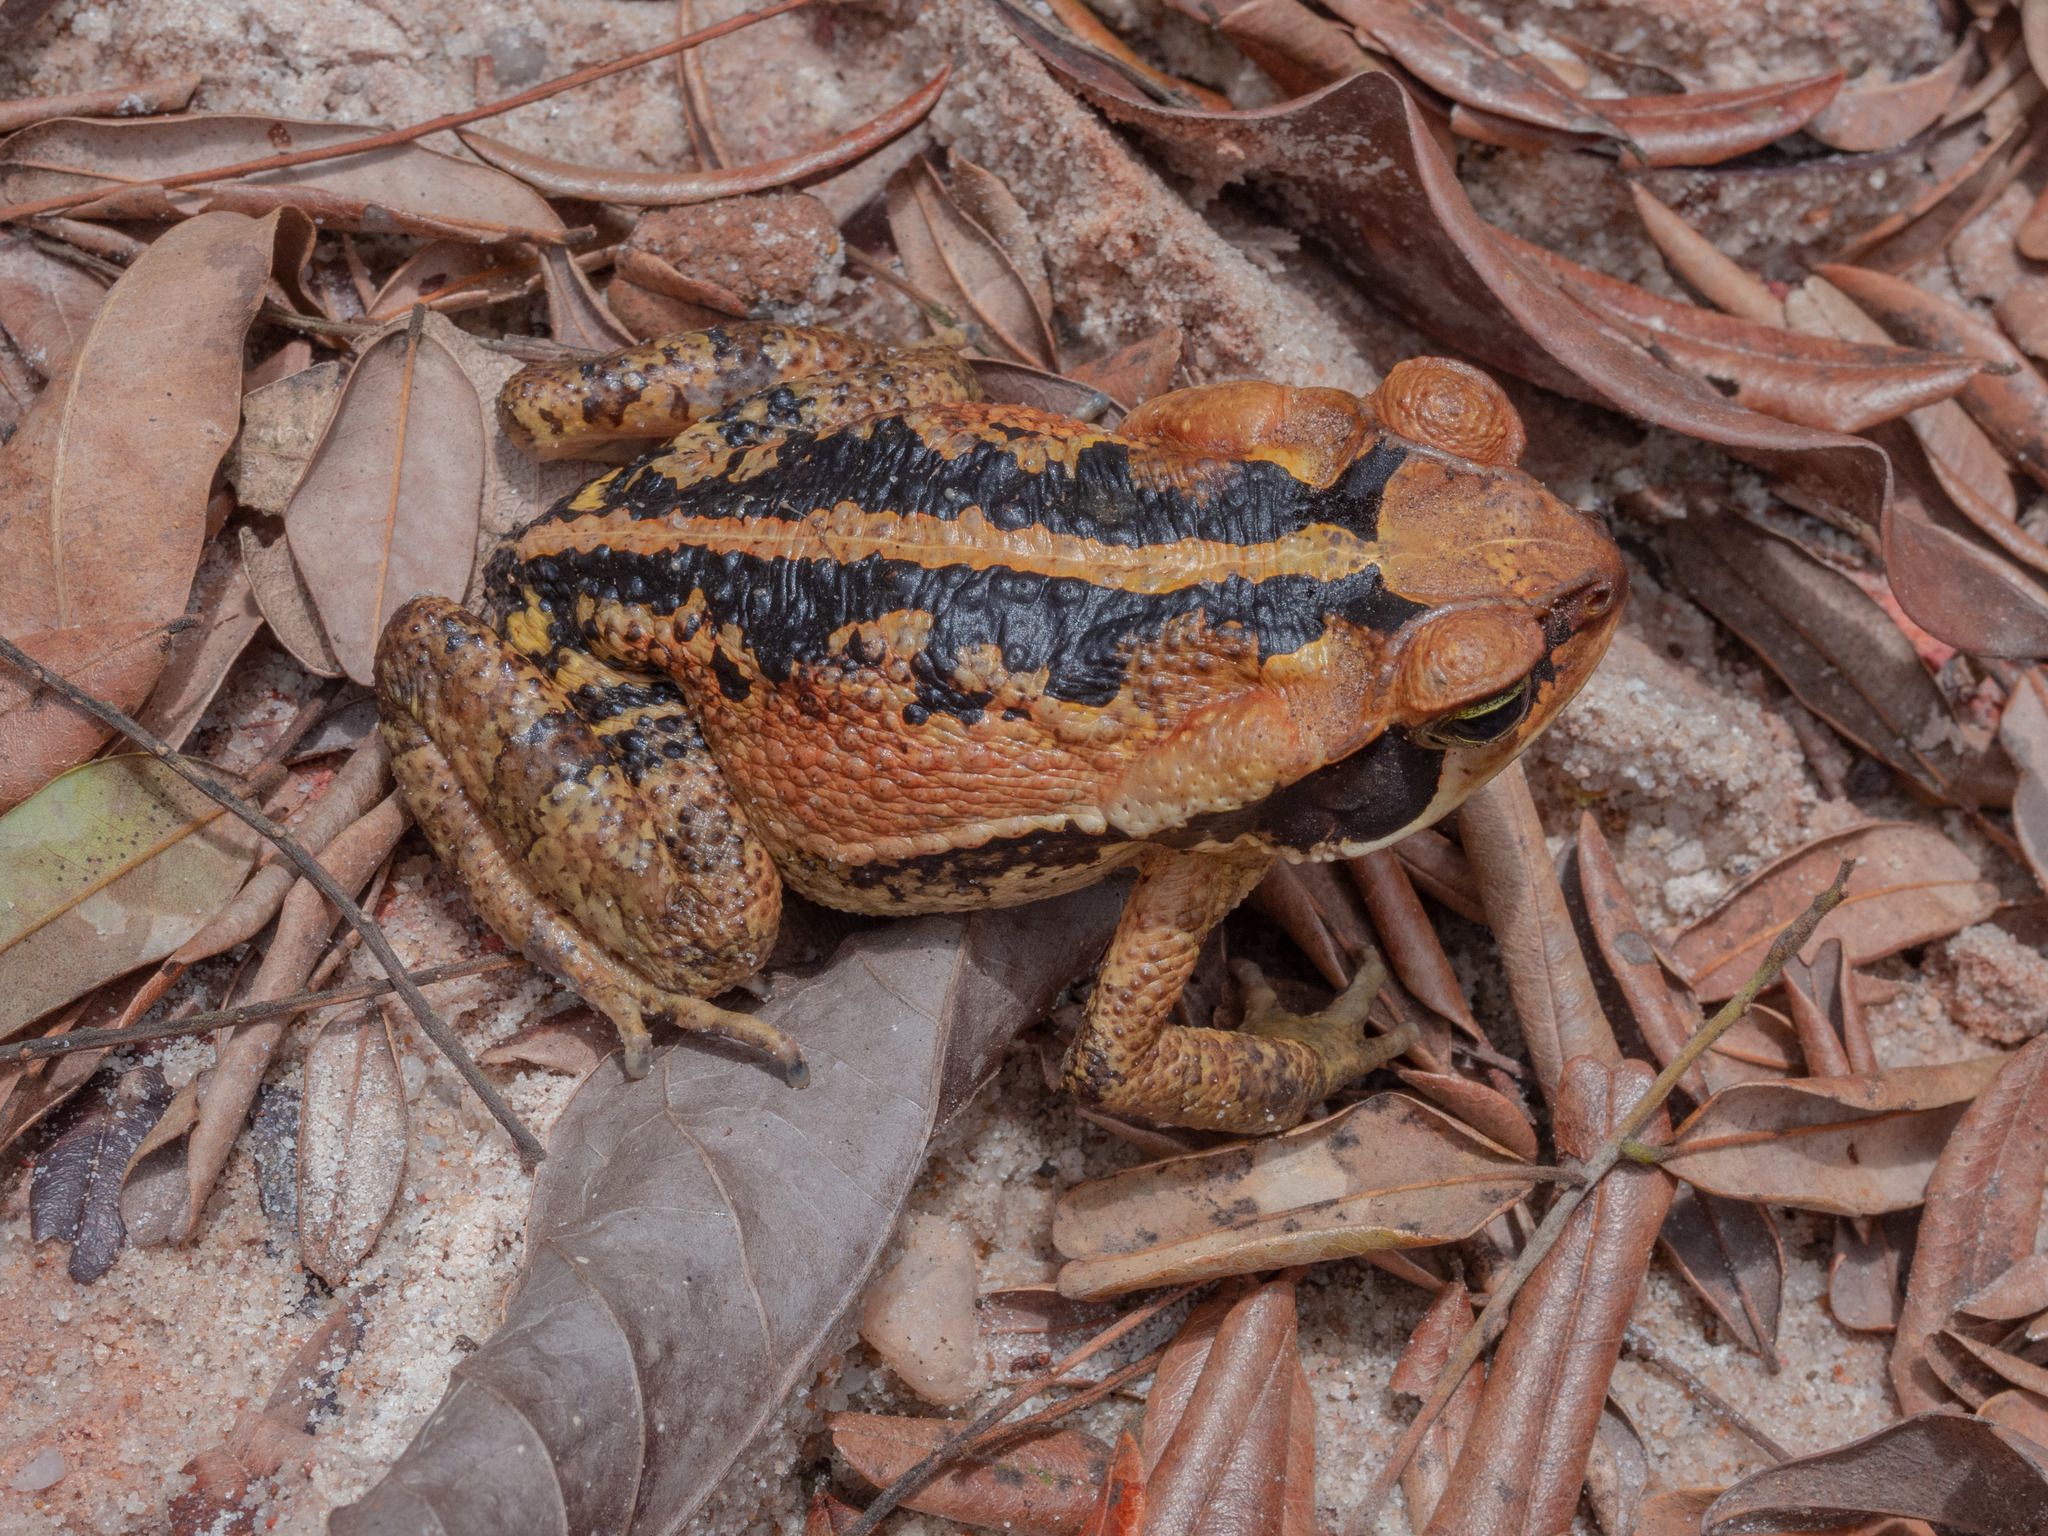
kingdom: Animalia
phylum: Chordata
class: Amphibia
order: Anura
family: Bufonidae
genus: Rhinella
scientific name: Rhinella crucifer
